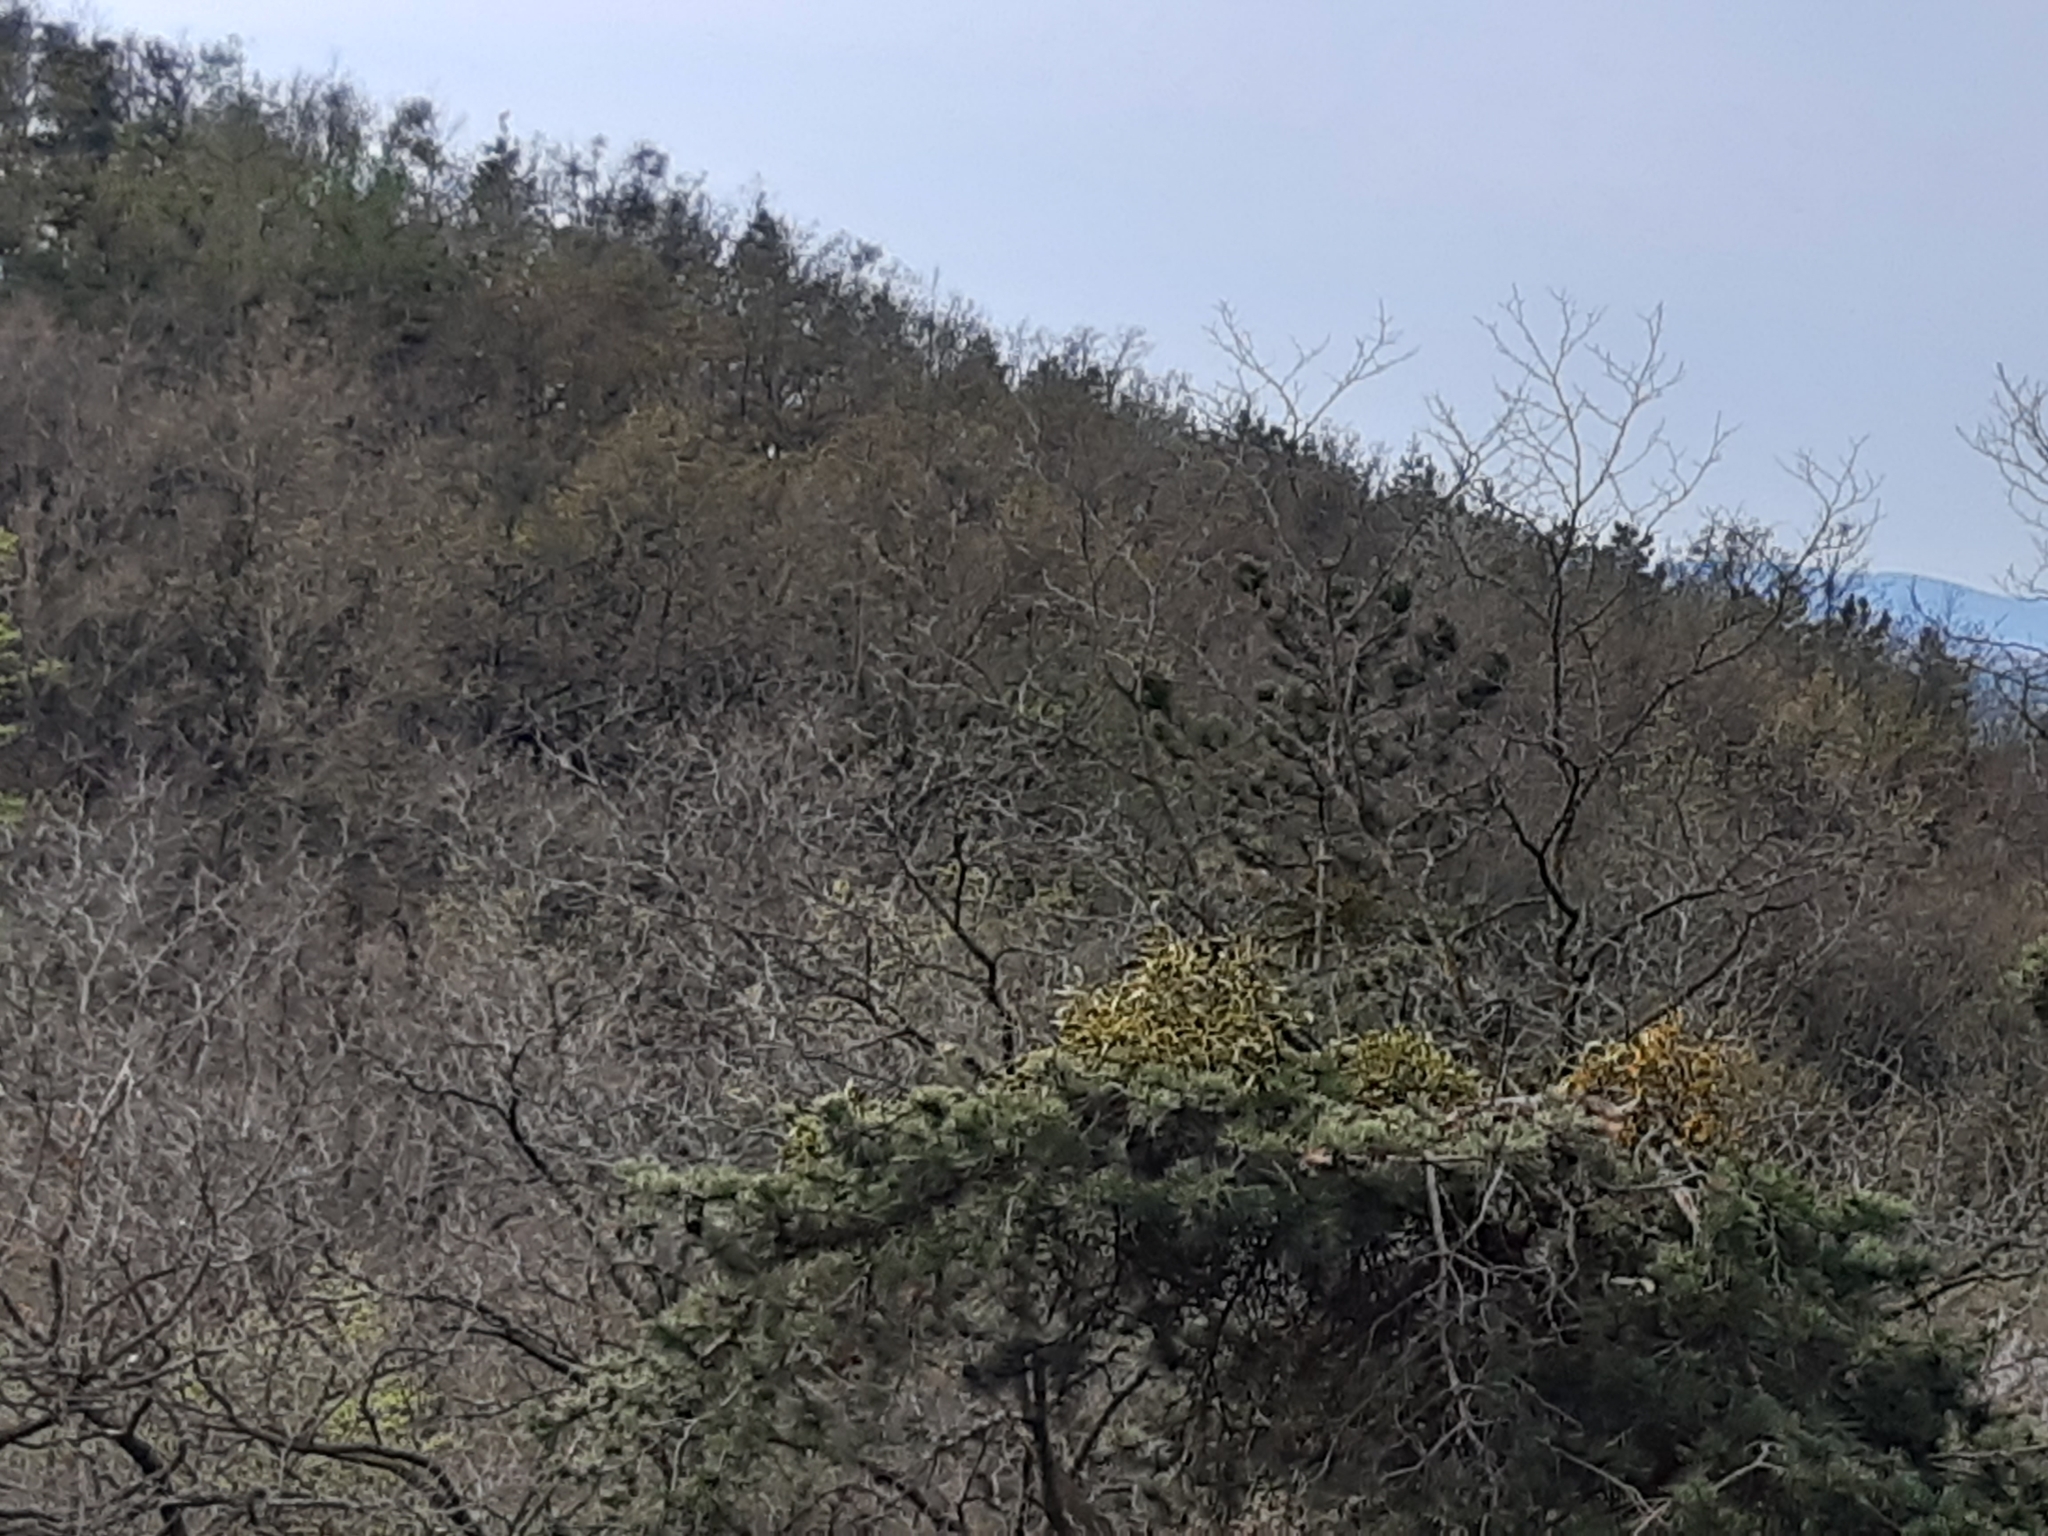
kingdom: Plantae
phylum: Tracheophyta
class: Magnoliopsida
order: Santalales
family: Viscaceae
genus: Viscum
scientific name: Viscum album
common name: Mistletoe
